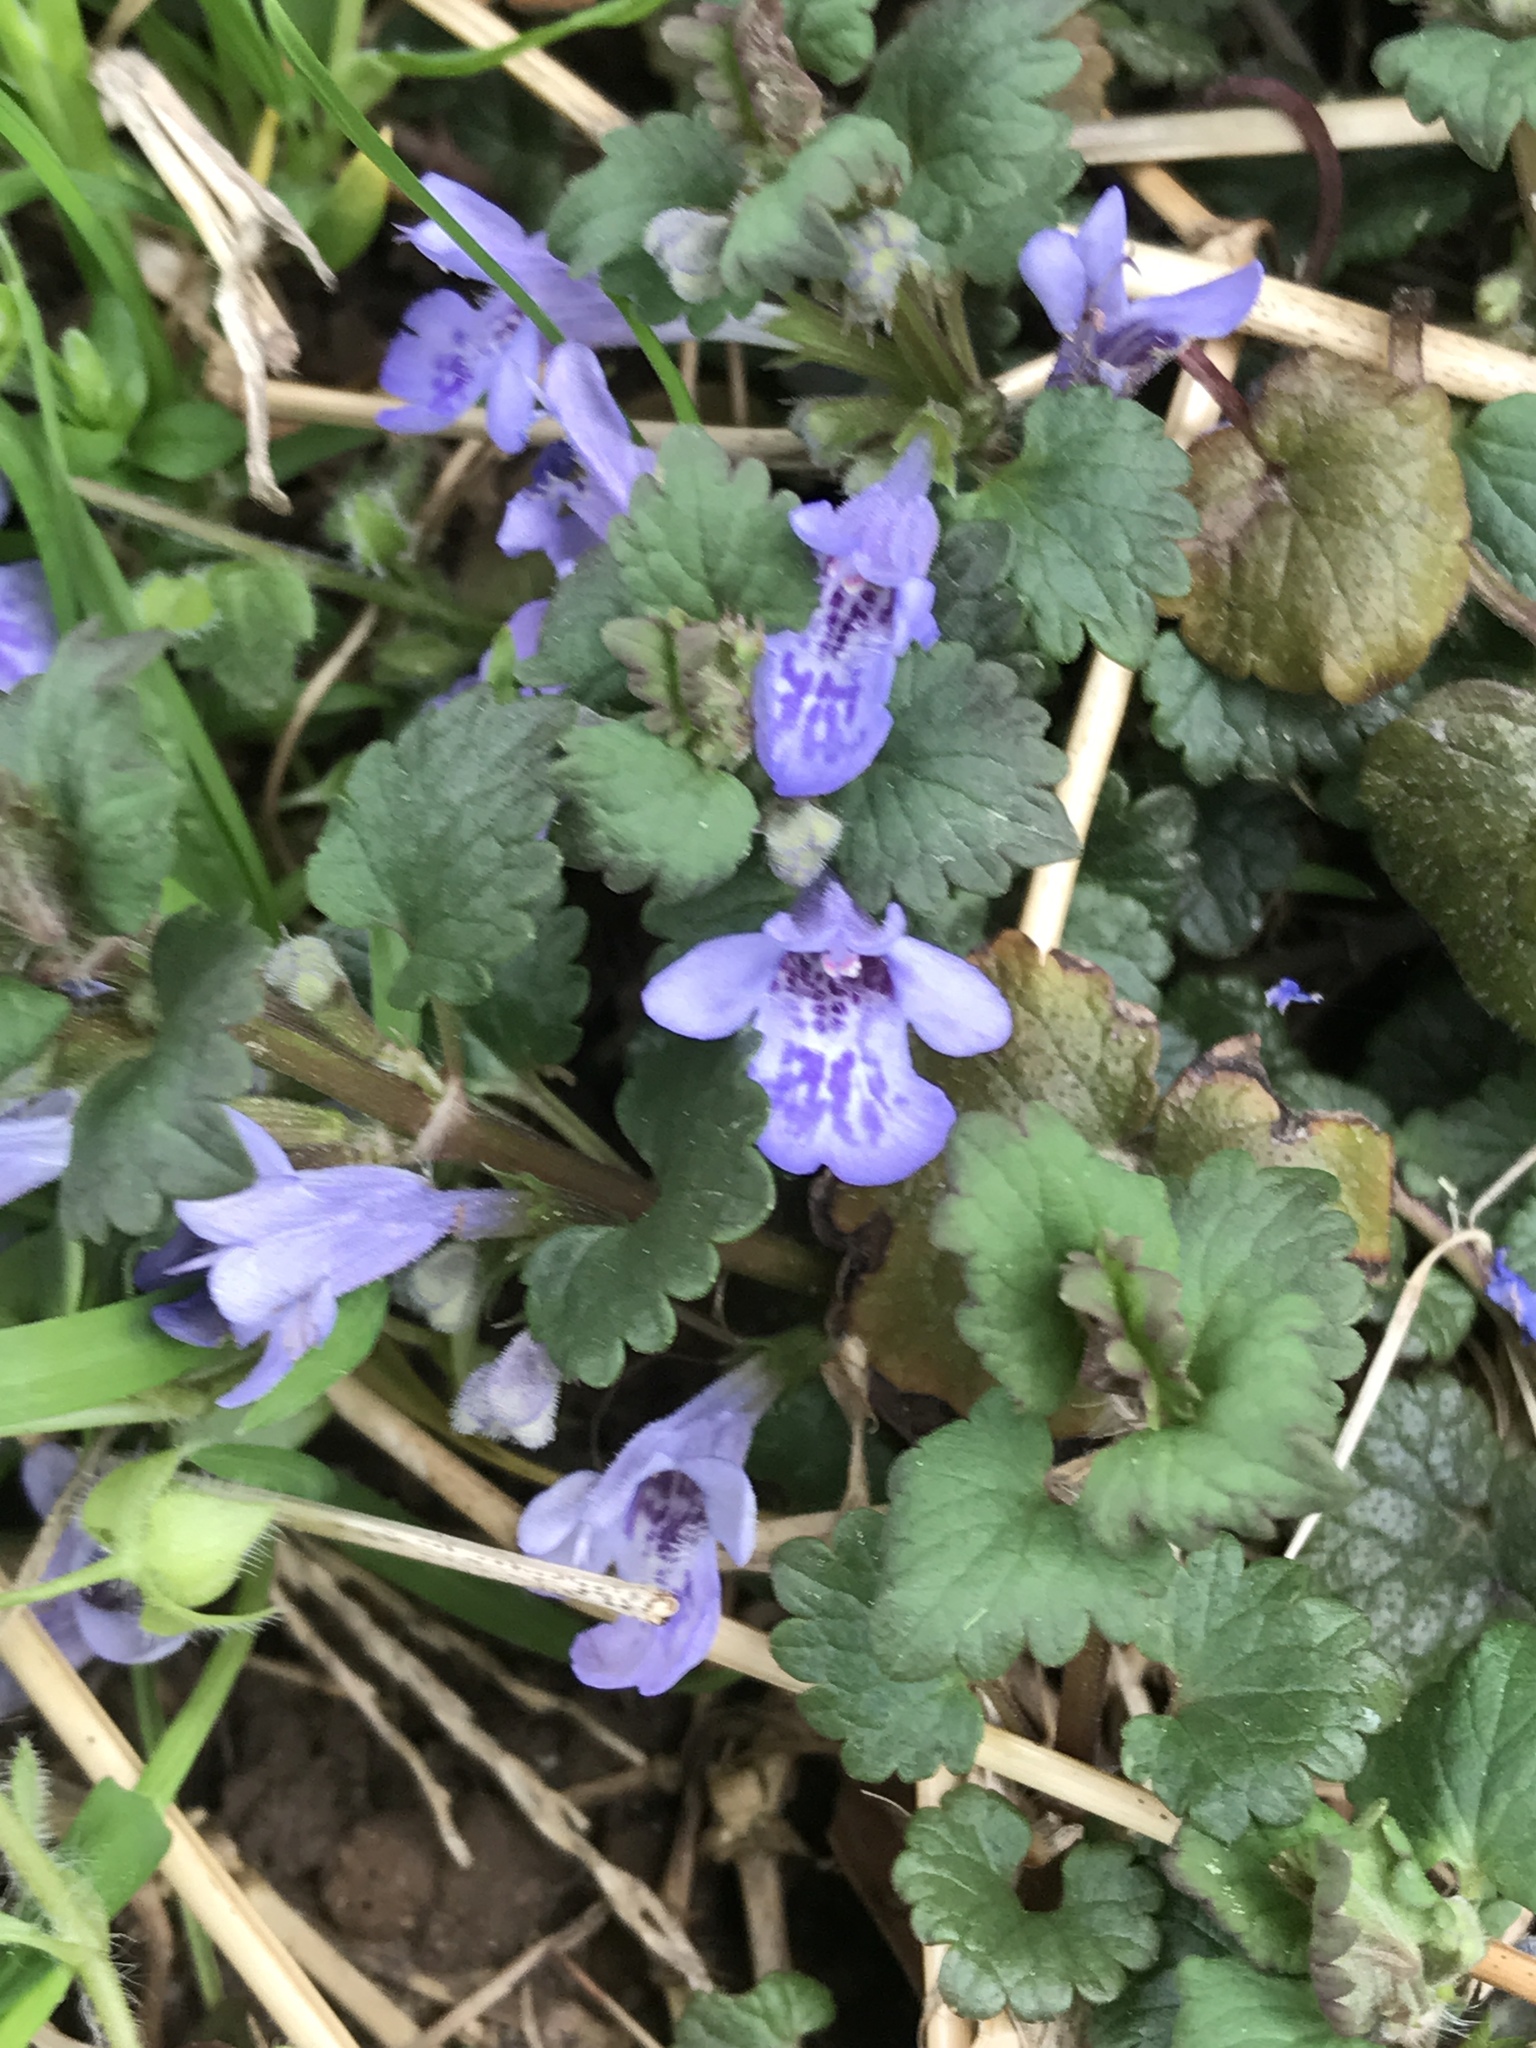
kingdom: Plantae
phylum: Tracheophyta
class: Magnoliopsida
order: Lamiales
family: Lamiaceae
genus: Glechoma
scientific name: Glechoma hederacea
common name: Ground ivy
